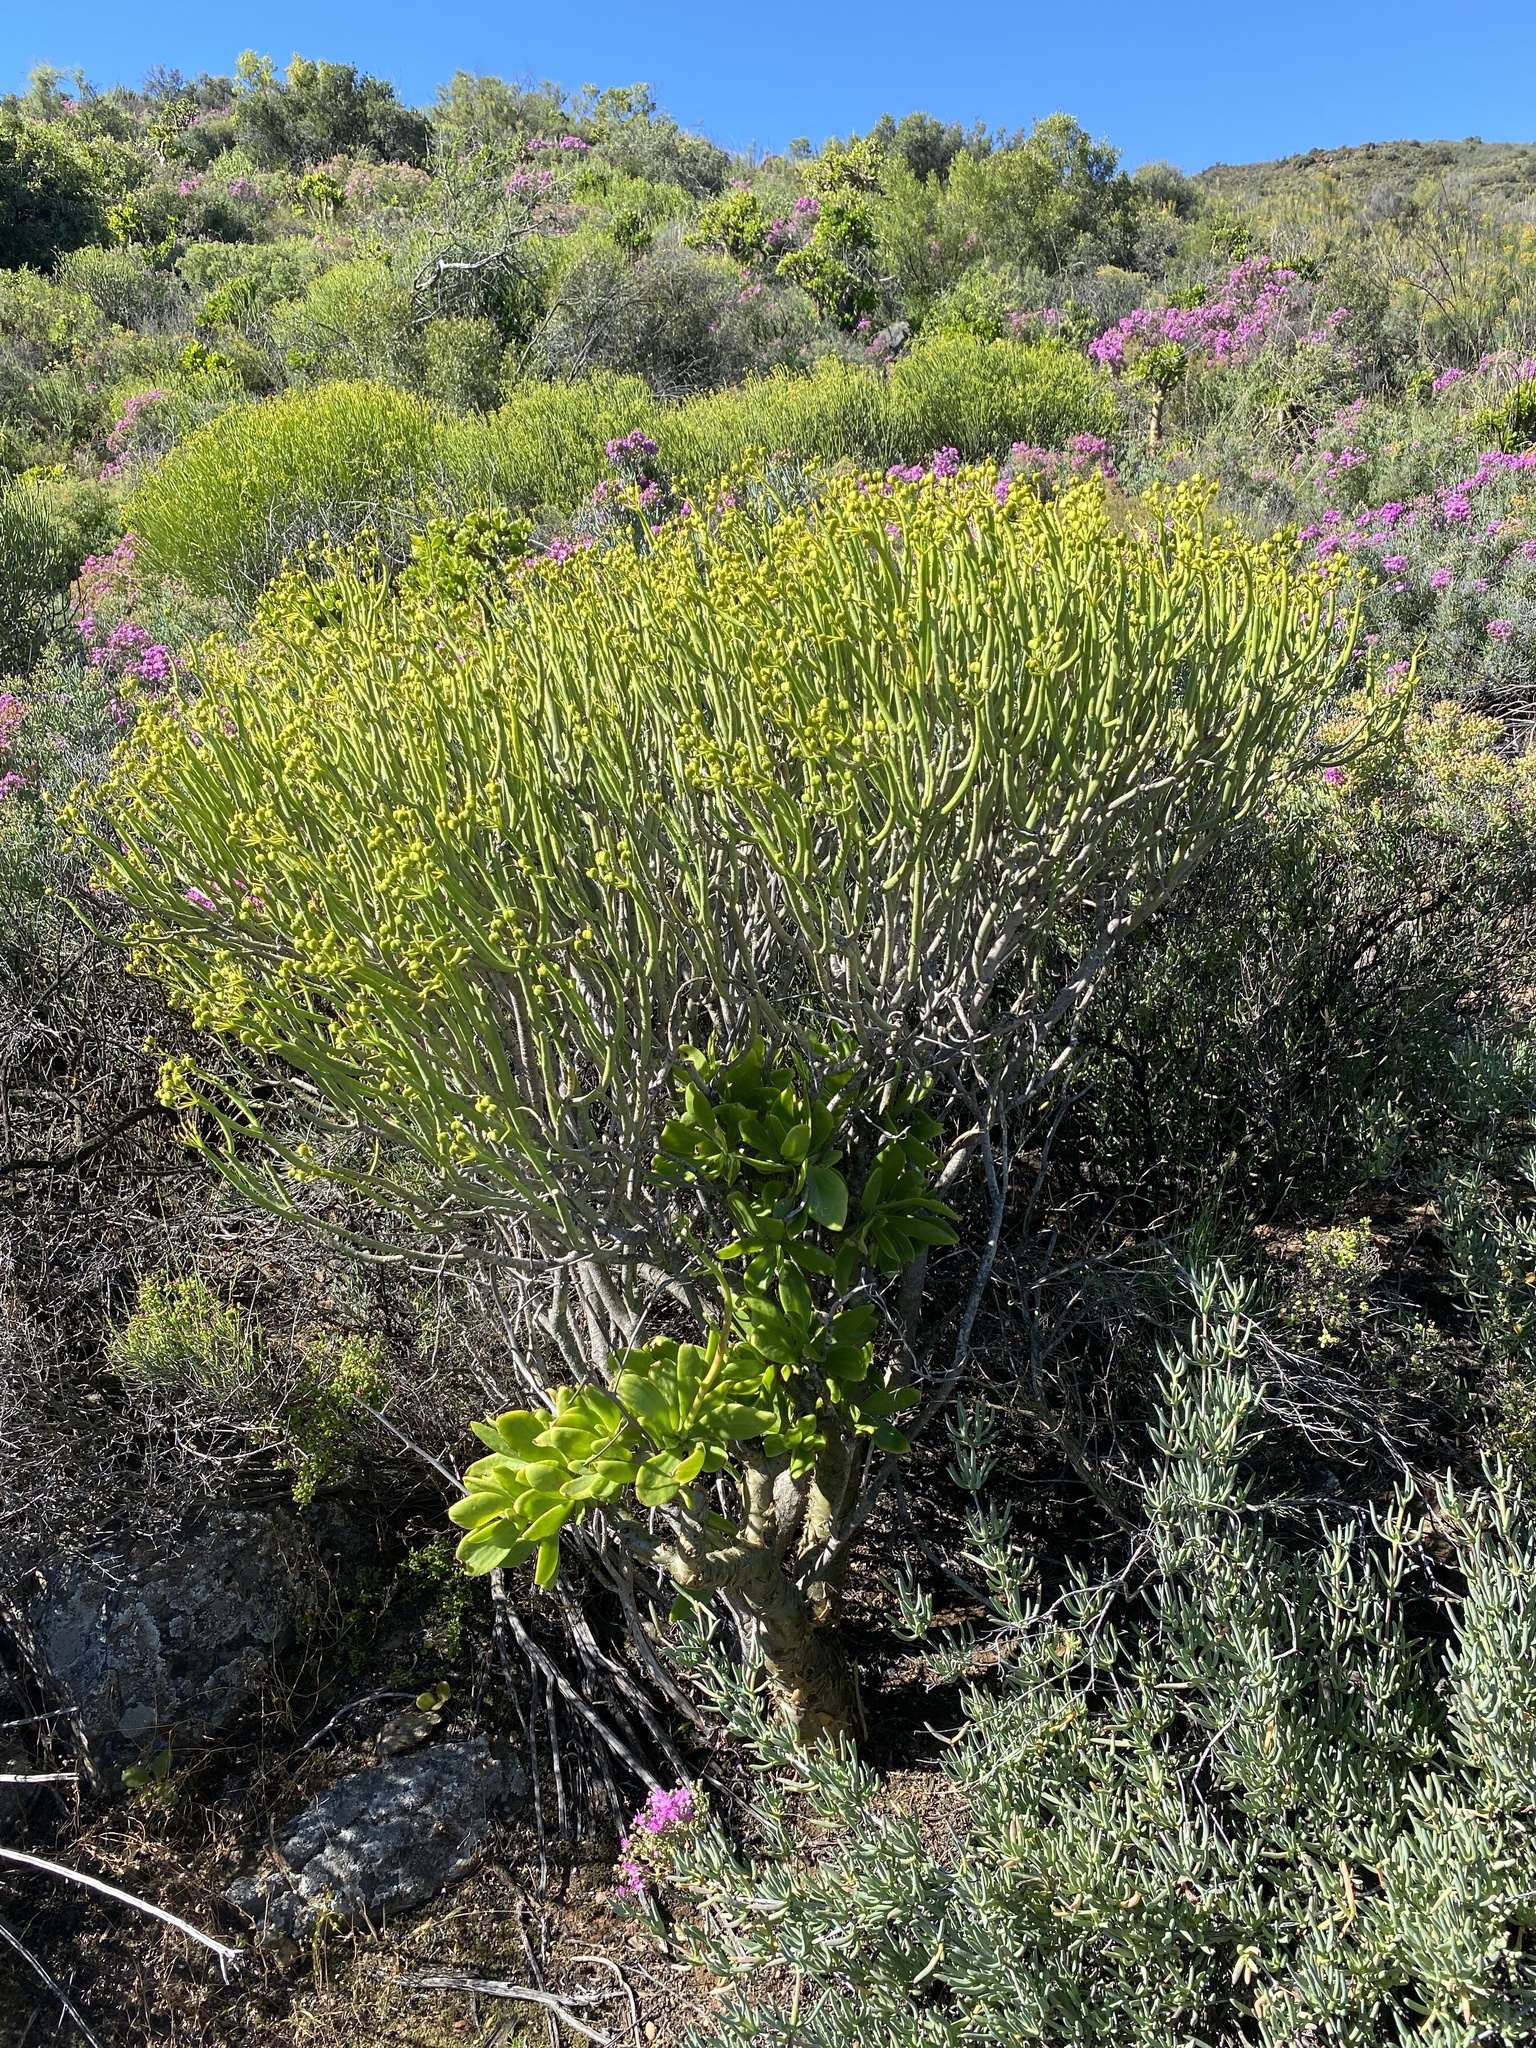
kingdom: Plantae
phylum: Tracheophyta
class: Magnoliopsida
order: Malpighiales
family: Euphorbiaceae
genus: Euphorbia
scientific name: Euphorbia mauritanica
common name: Jackal's-food
